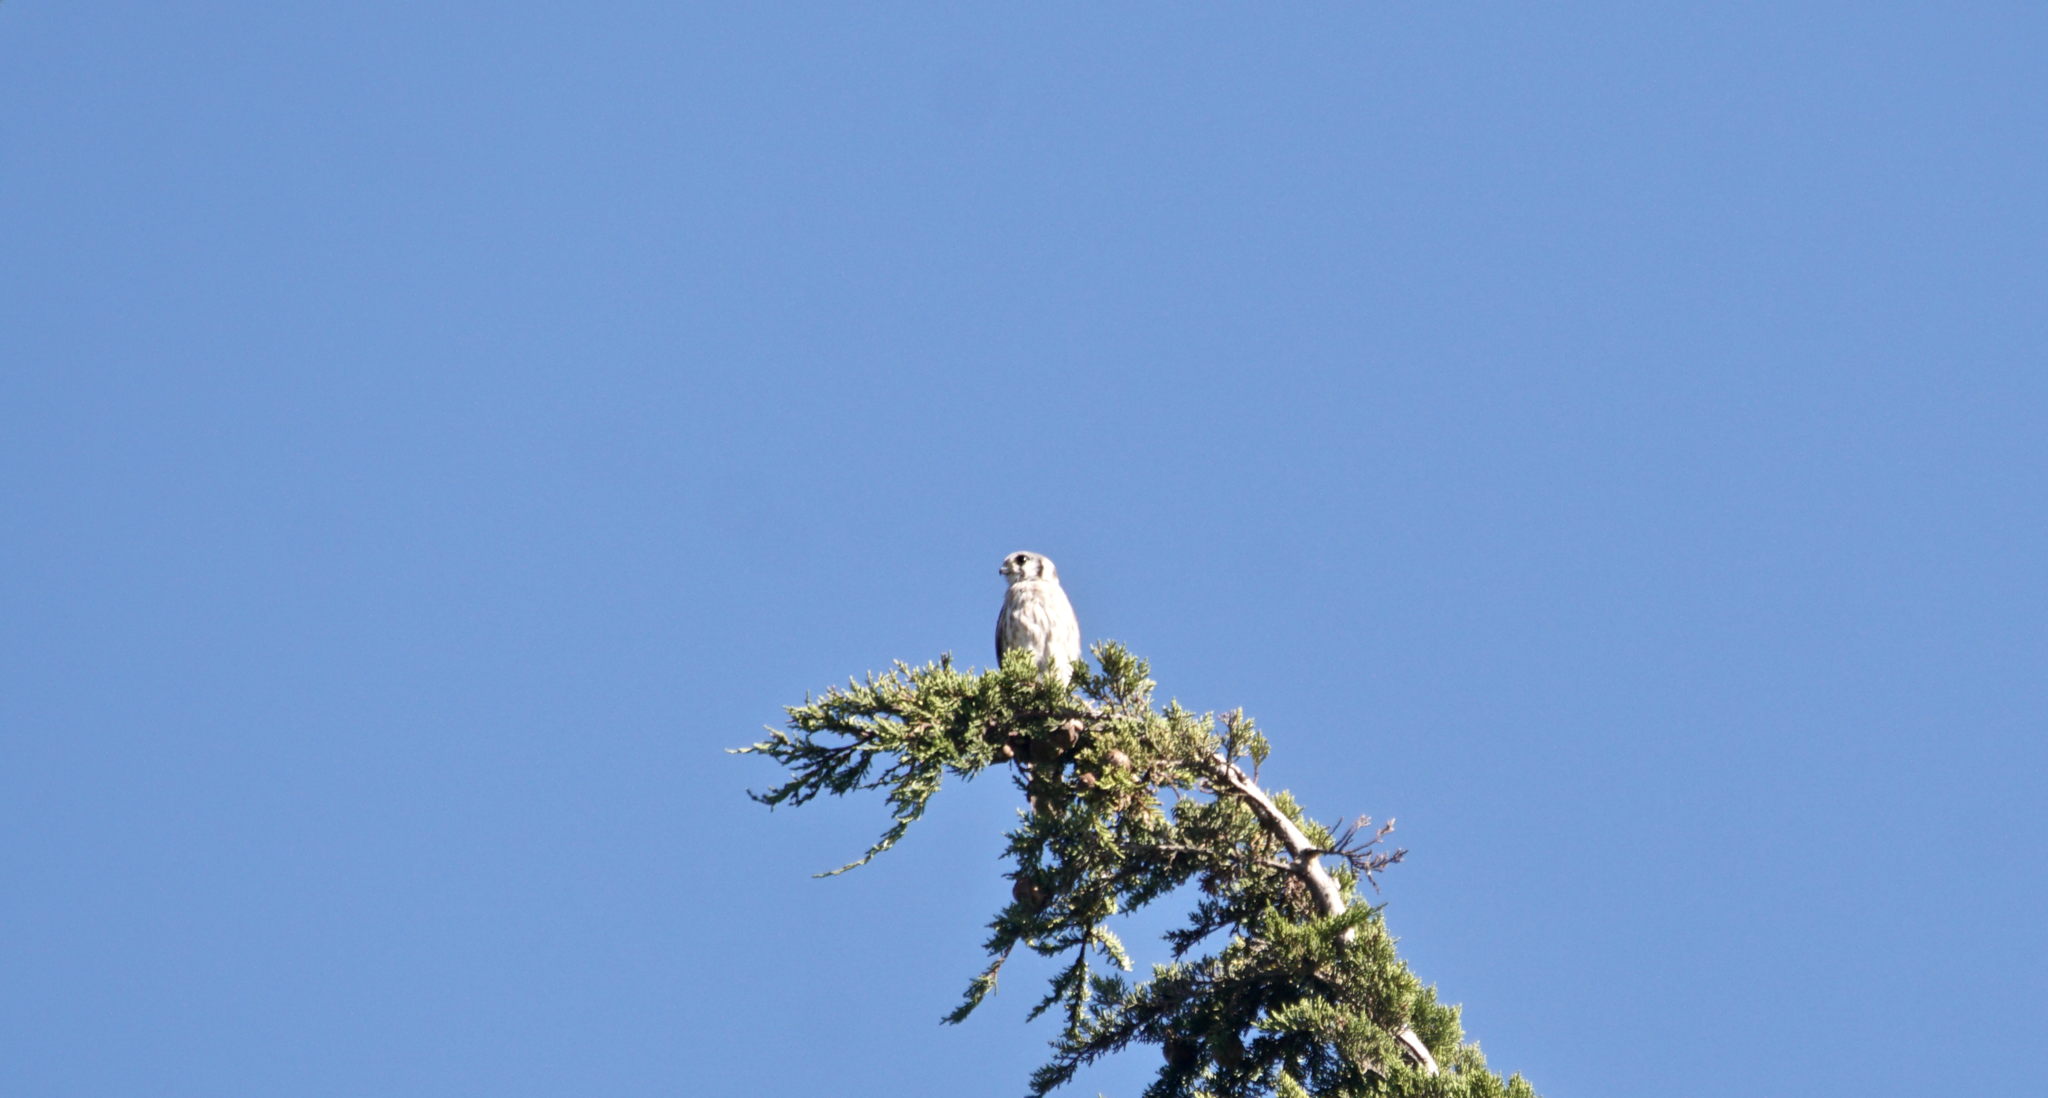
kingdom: Animalia
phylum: Chordata
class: Aves
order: Falconiformes
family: Falconidae
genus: Falco
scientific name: Falco sparverius
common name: American kestrel
